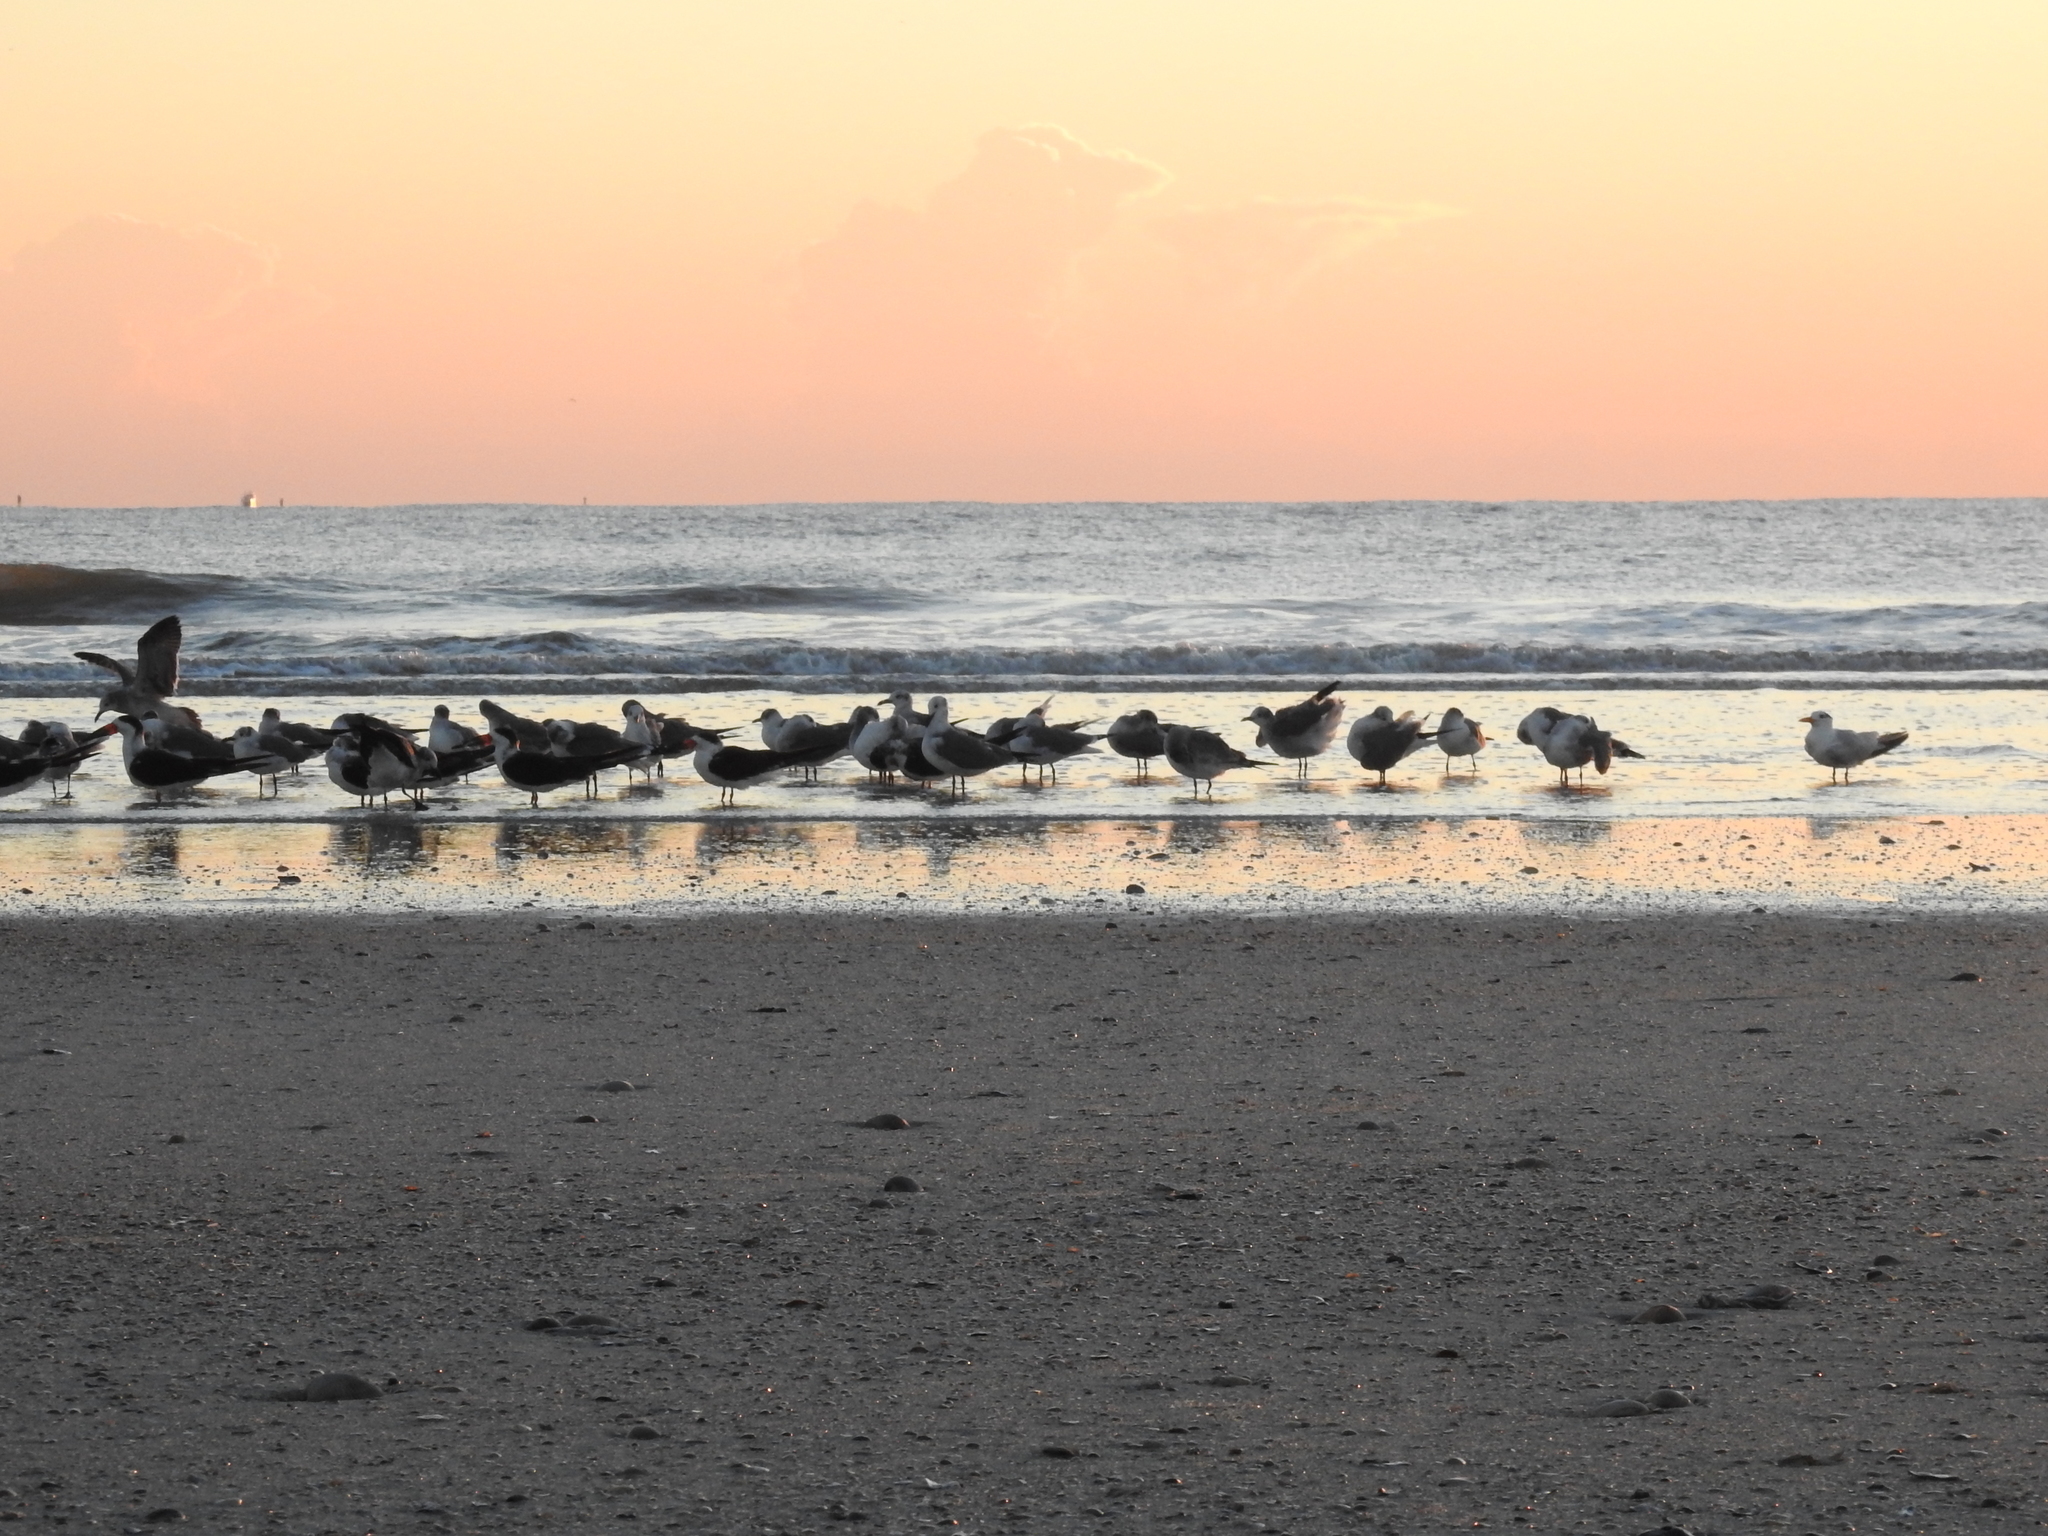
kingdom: Animalia
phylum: Chordata
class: Aves
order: Charadriiformes
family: Laridae
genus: Leucophaeus
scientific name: Leucophaeus atricilla
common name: Laughing gull
